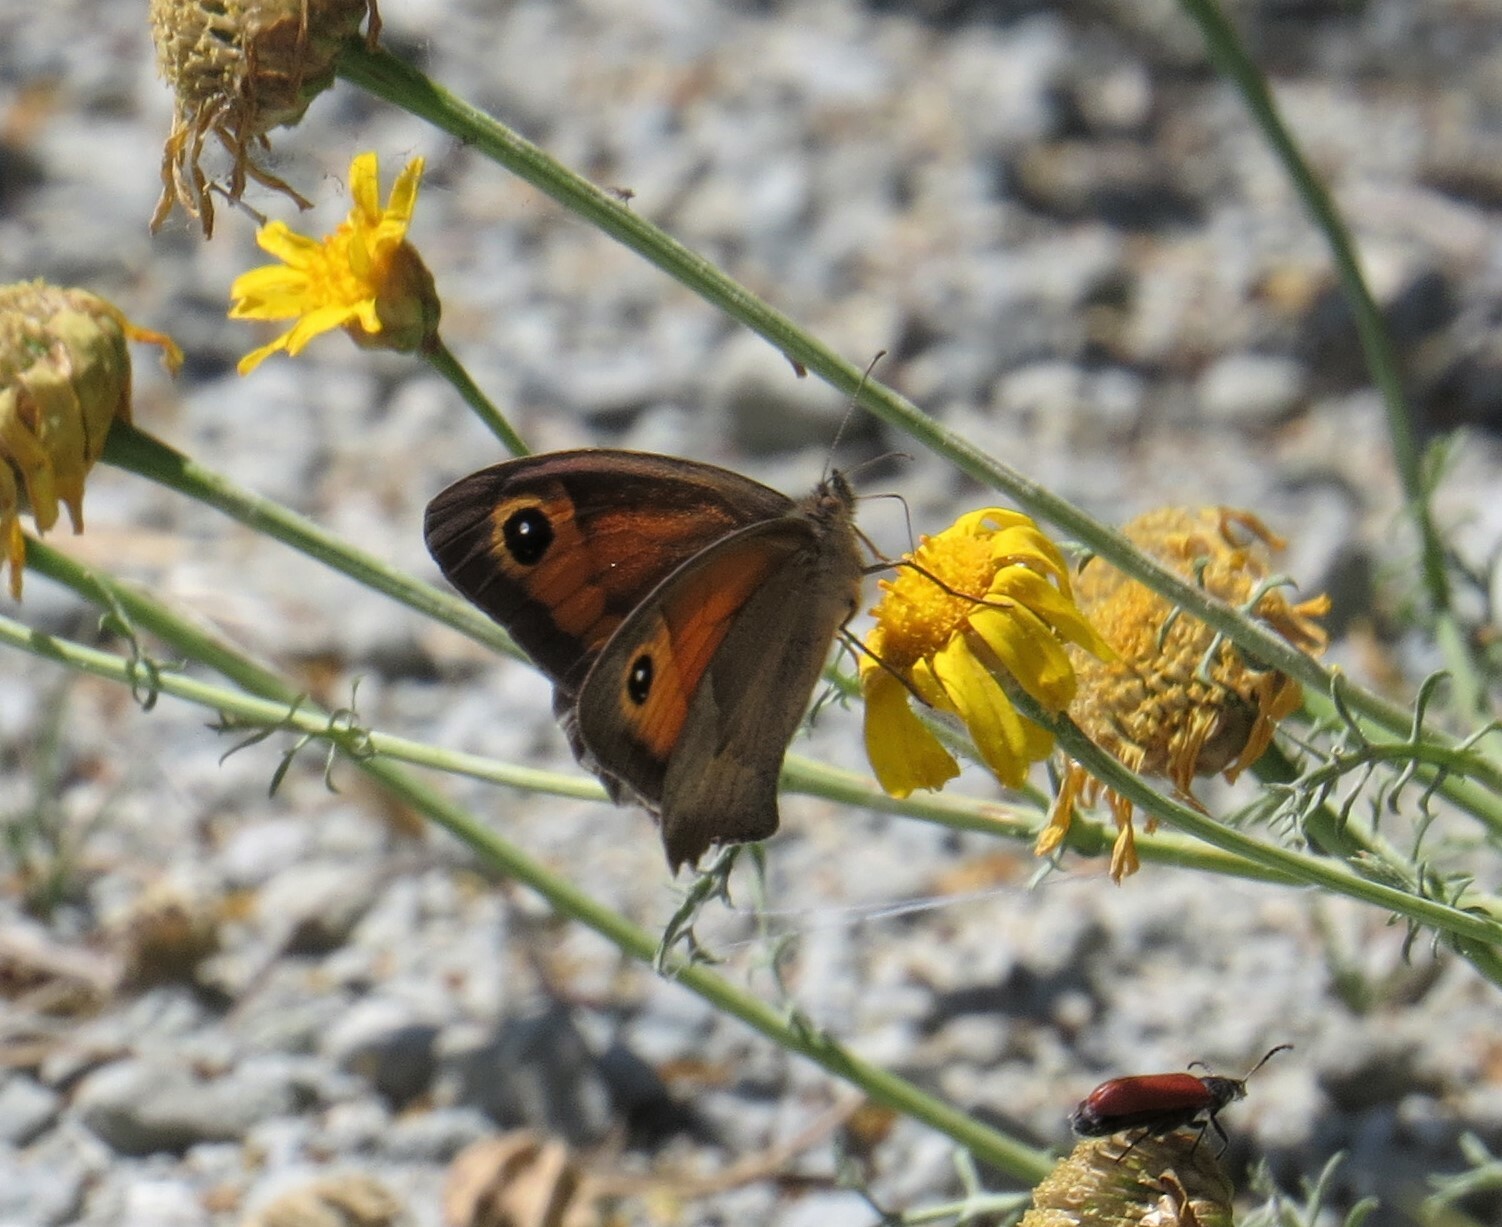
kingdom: Animalia
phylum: Arthropoda
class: Insecta
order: Lepidoptera
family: Nymphalidae
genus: Maniola
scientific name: Maniola telmessia
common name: Persian meadow brown
